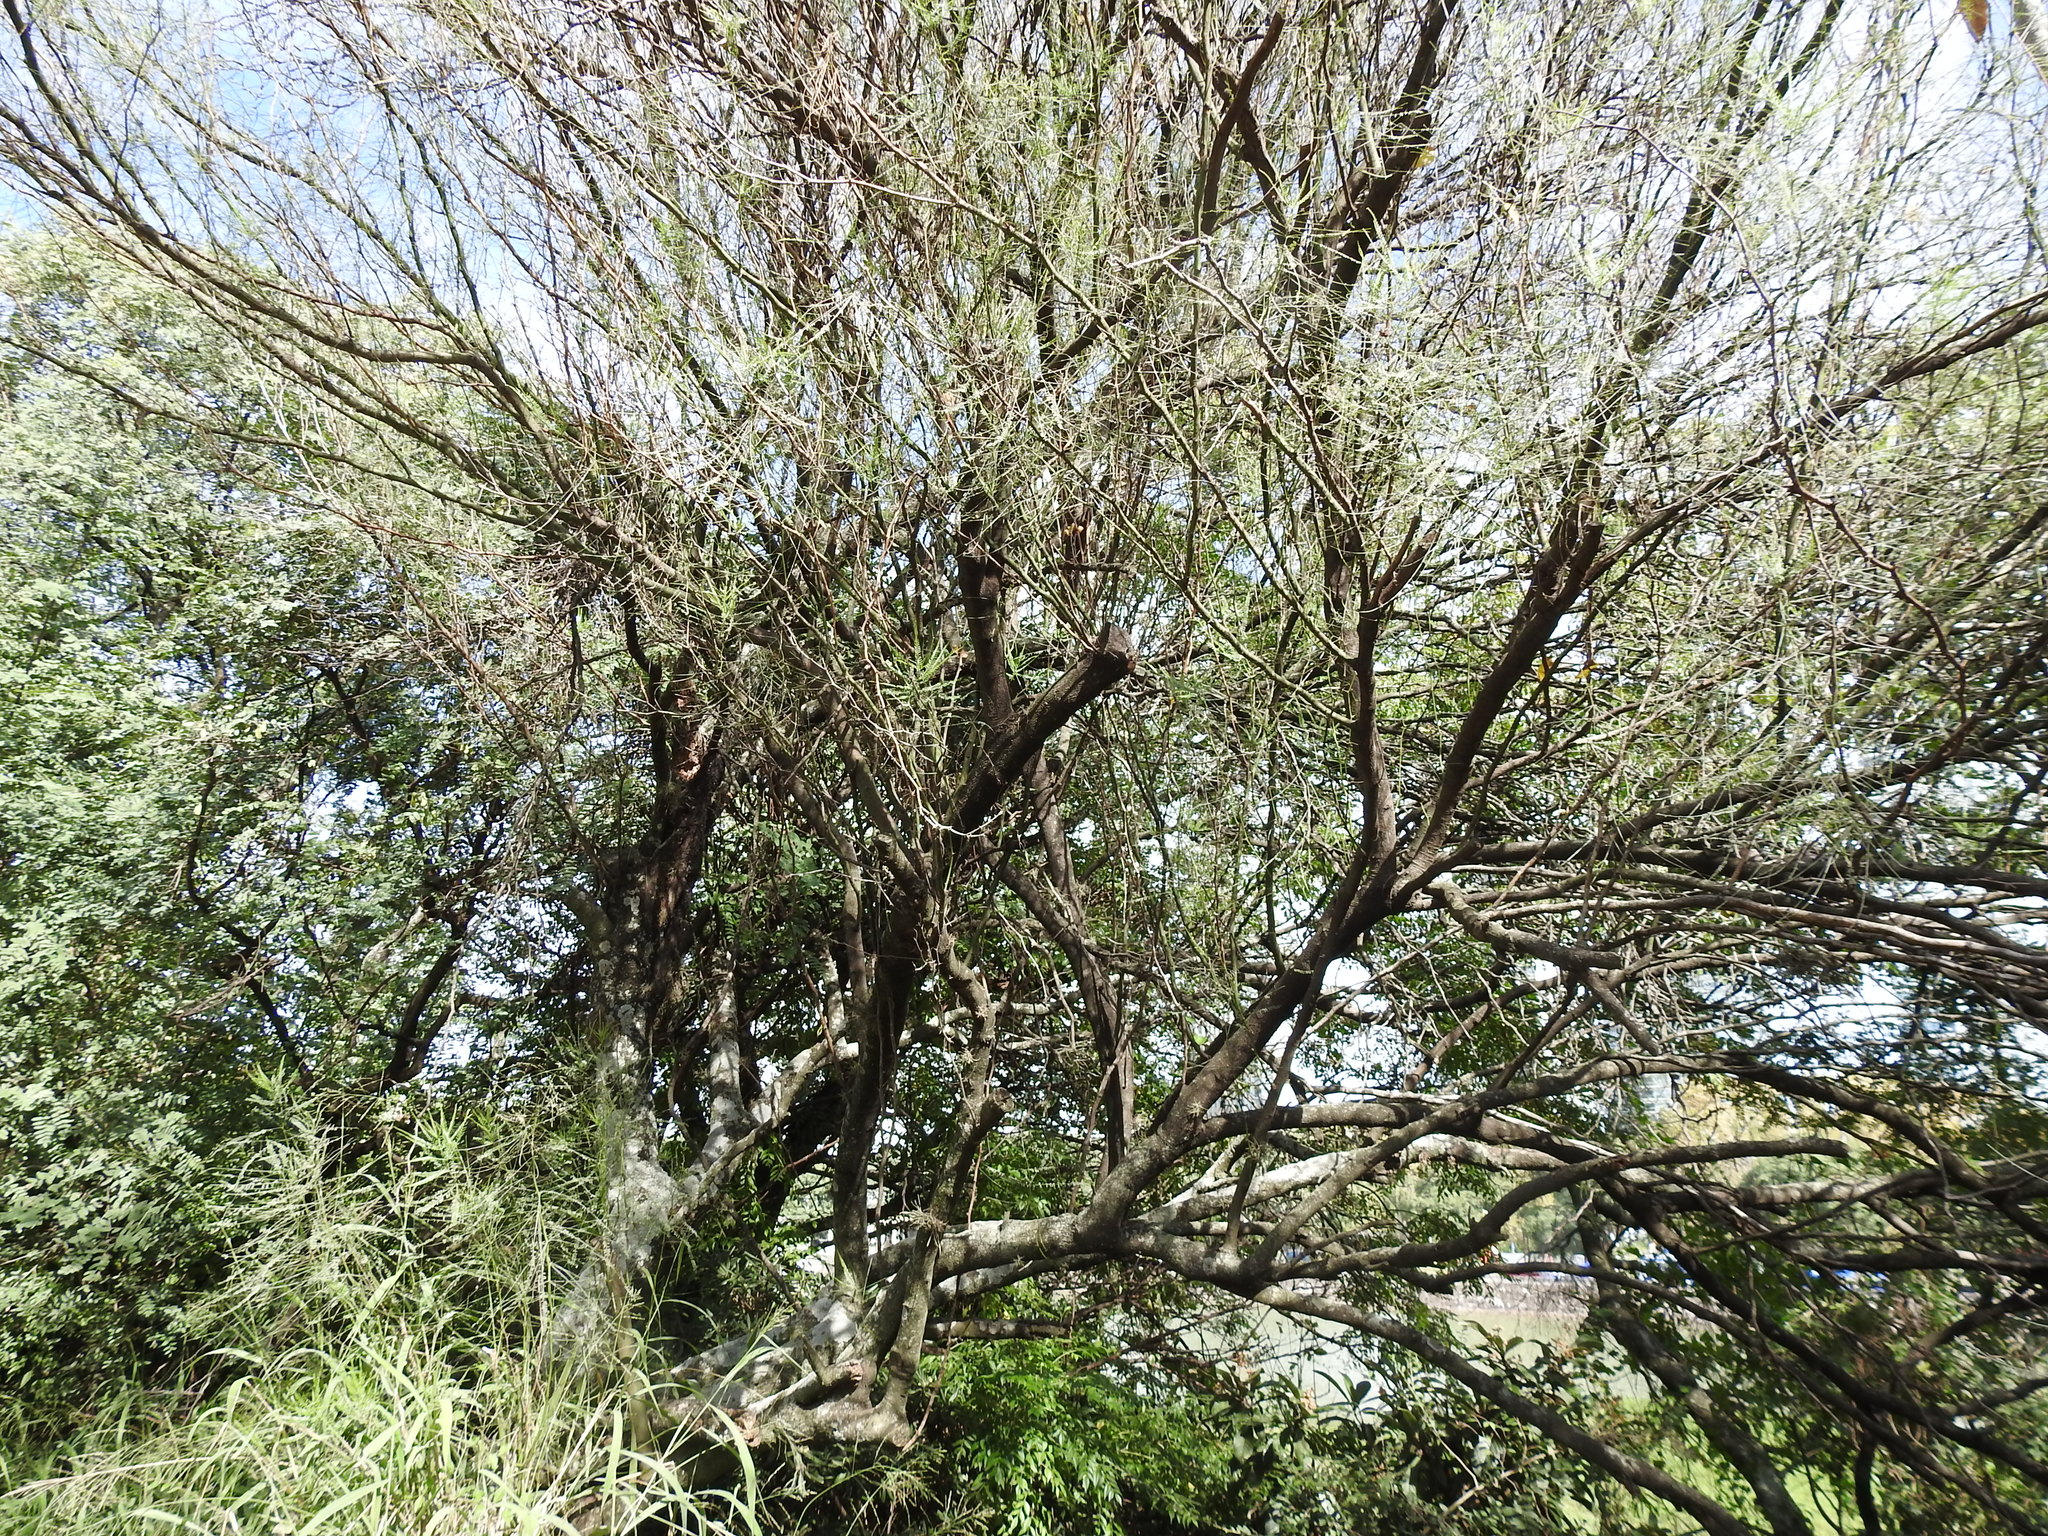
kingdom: Plantae
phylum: Tracheophyta
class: Magnoliopsida
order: Fabales
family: Fabaceae
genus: Parkinsonia
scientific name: Parkinsonia aculeata
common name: Jerusalem thorn
